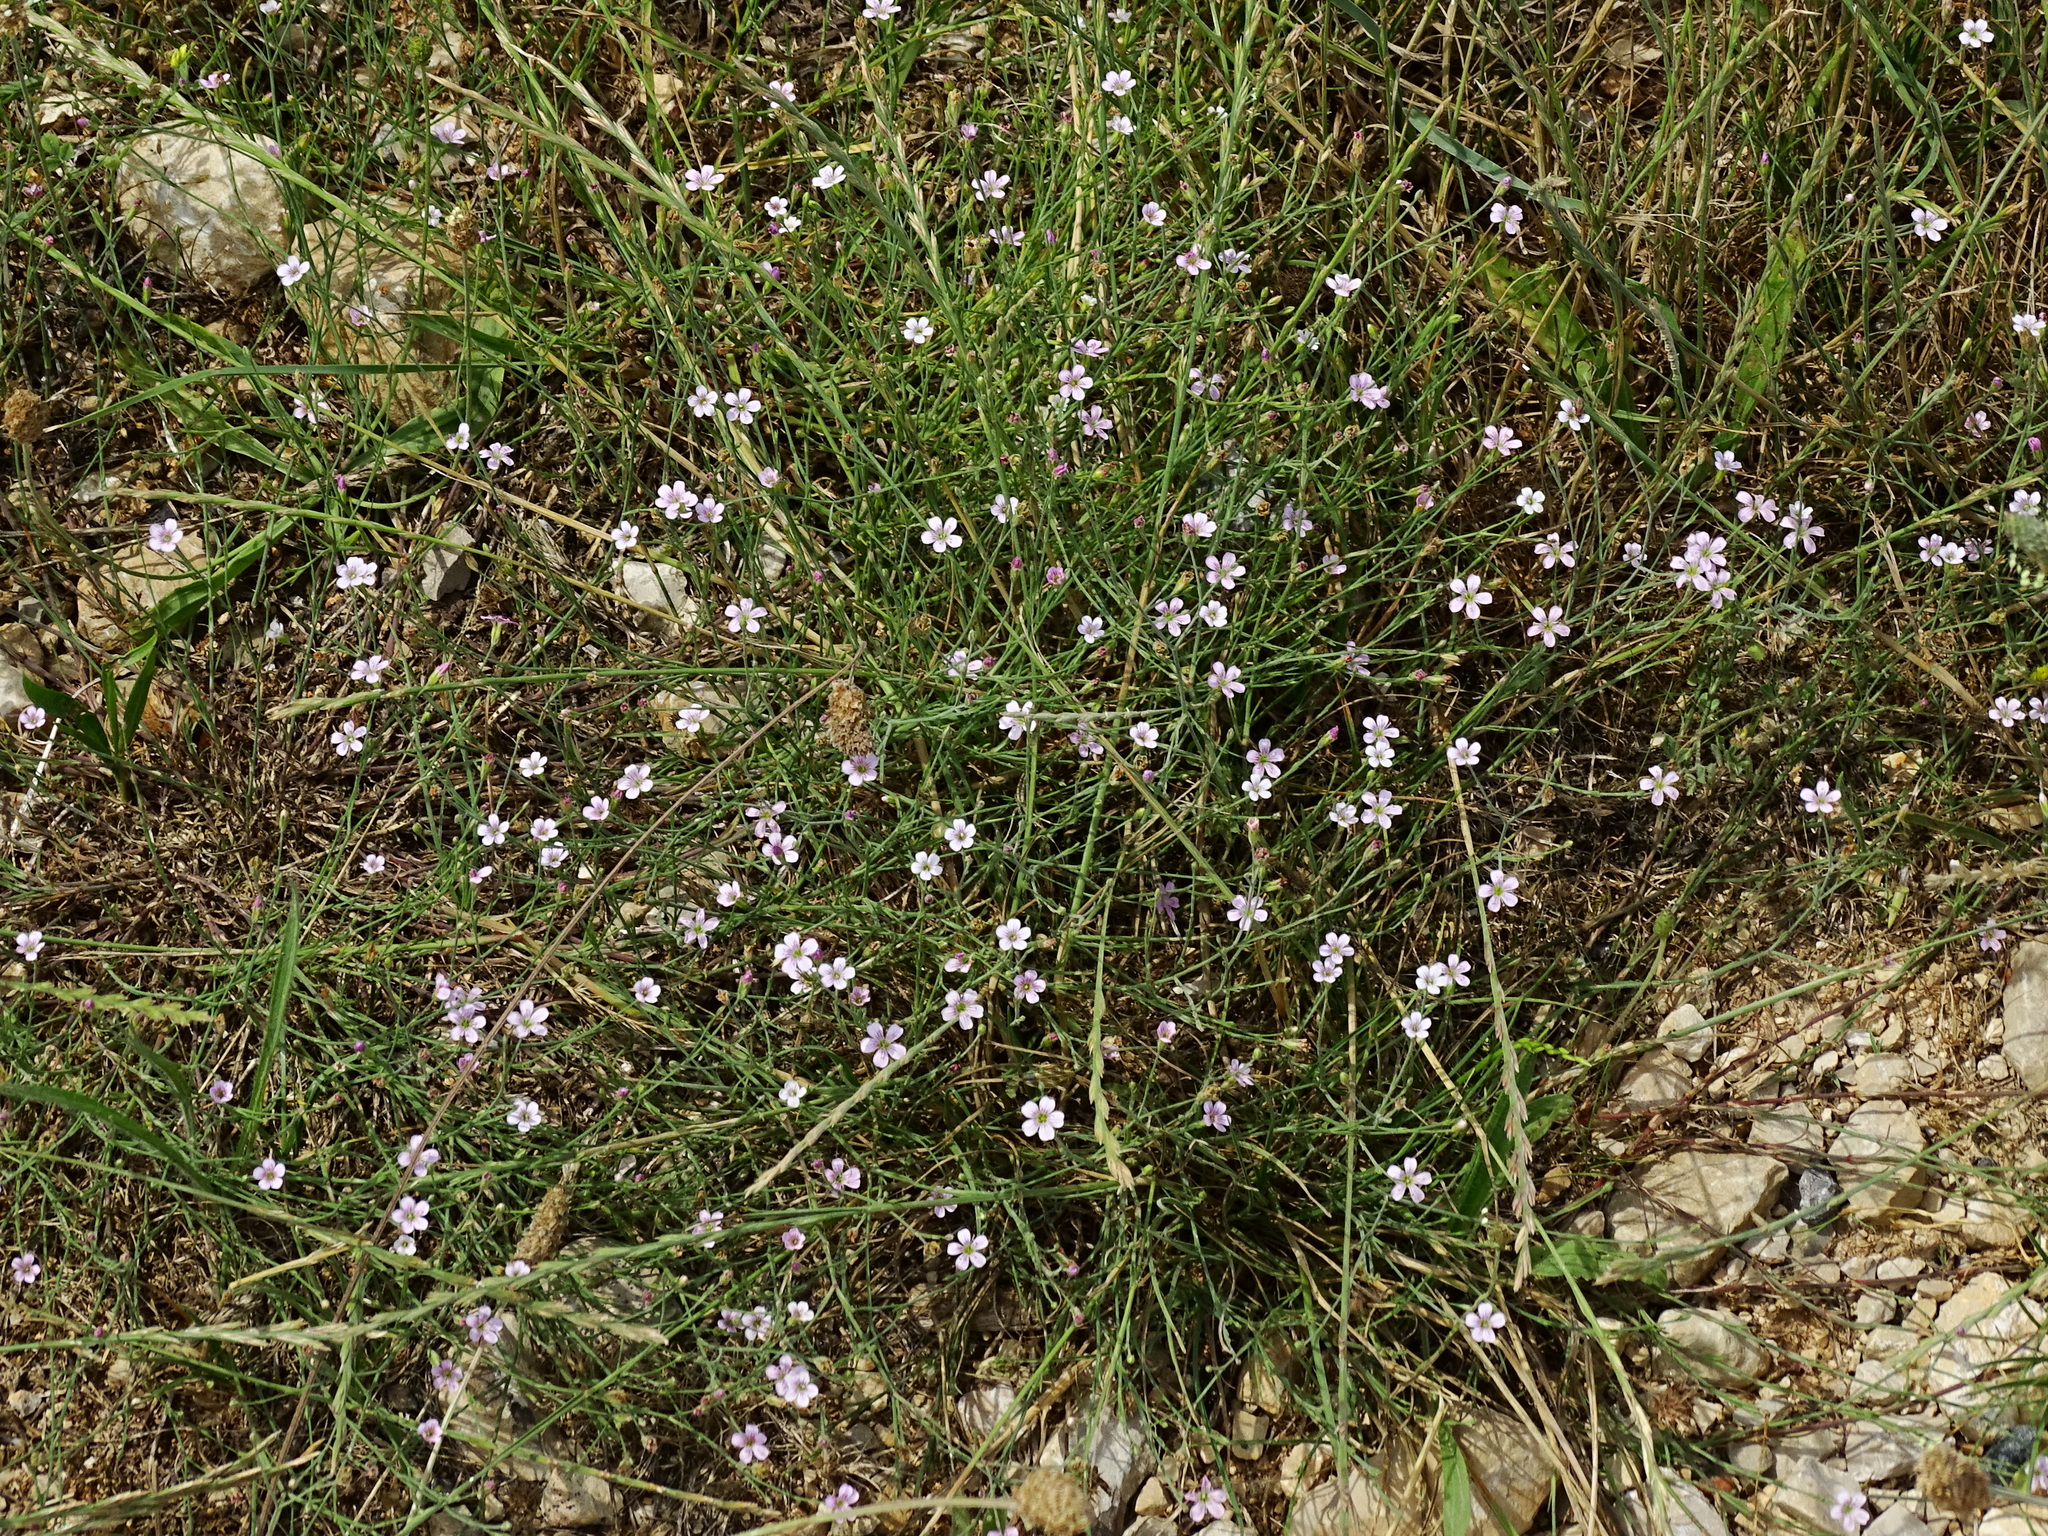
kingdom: Plantae
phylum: Tracheophyta
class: Magnoliopsida
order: Caryophyllales
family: Caryophyllaceae
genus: Petrorhagia
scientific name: Petrorhagia saxifraga
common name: Tunicflower
